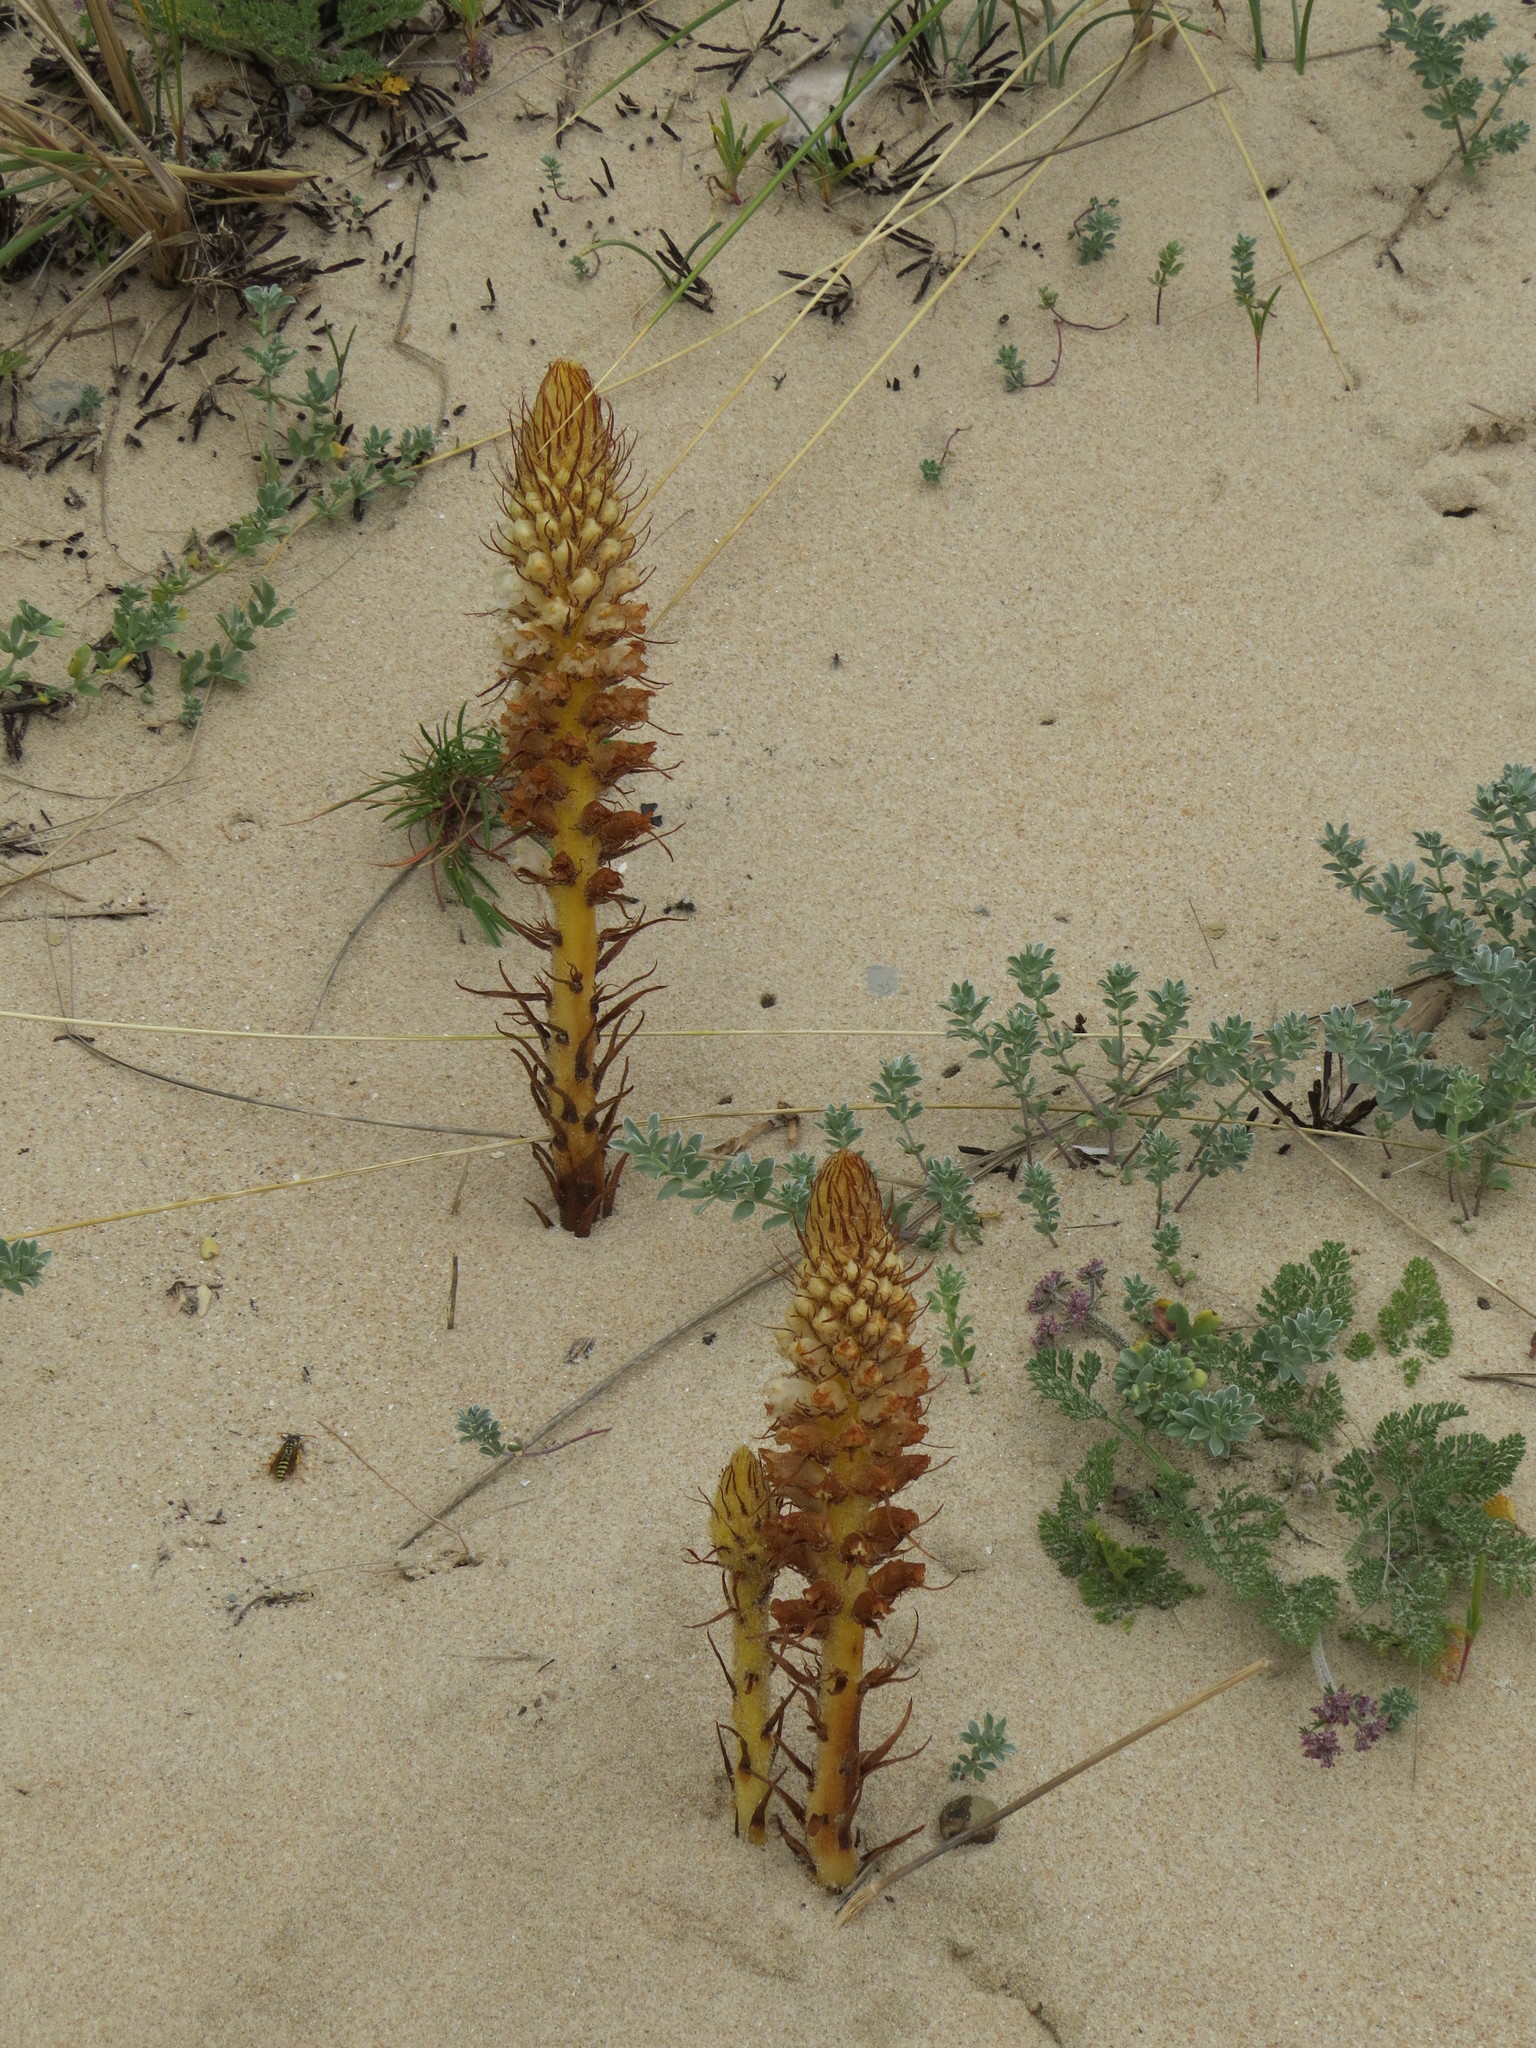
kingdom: Plantae
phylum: Tracheophyta
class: Magnoliopsida
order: Lamiales
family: Orobanchaceae
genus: Orobanche
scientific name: Orobanche densiflora
